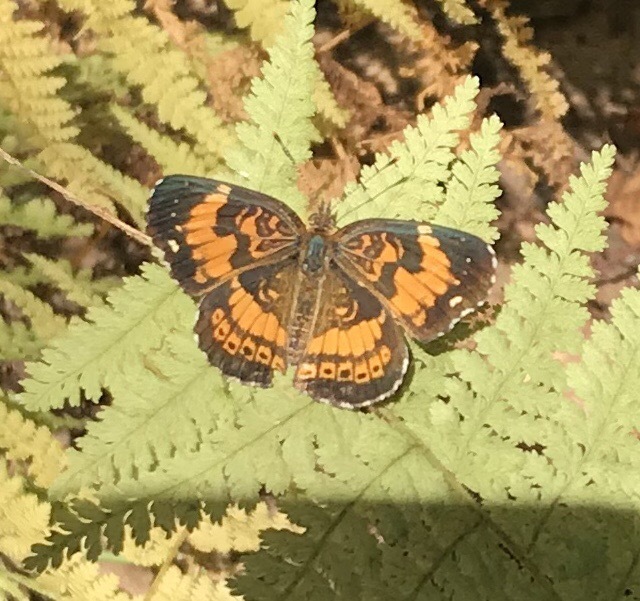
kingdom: Animalia
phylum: Arthropoda
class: Insecta
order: Lepidoptera
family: Nymphalidae
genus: Chlosyne
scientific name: Chlosyne nycteis
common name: Silvery checkerspot
